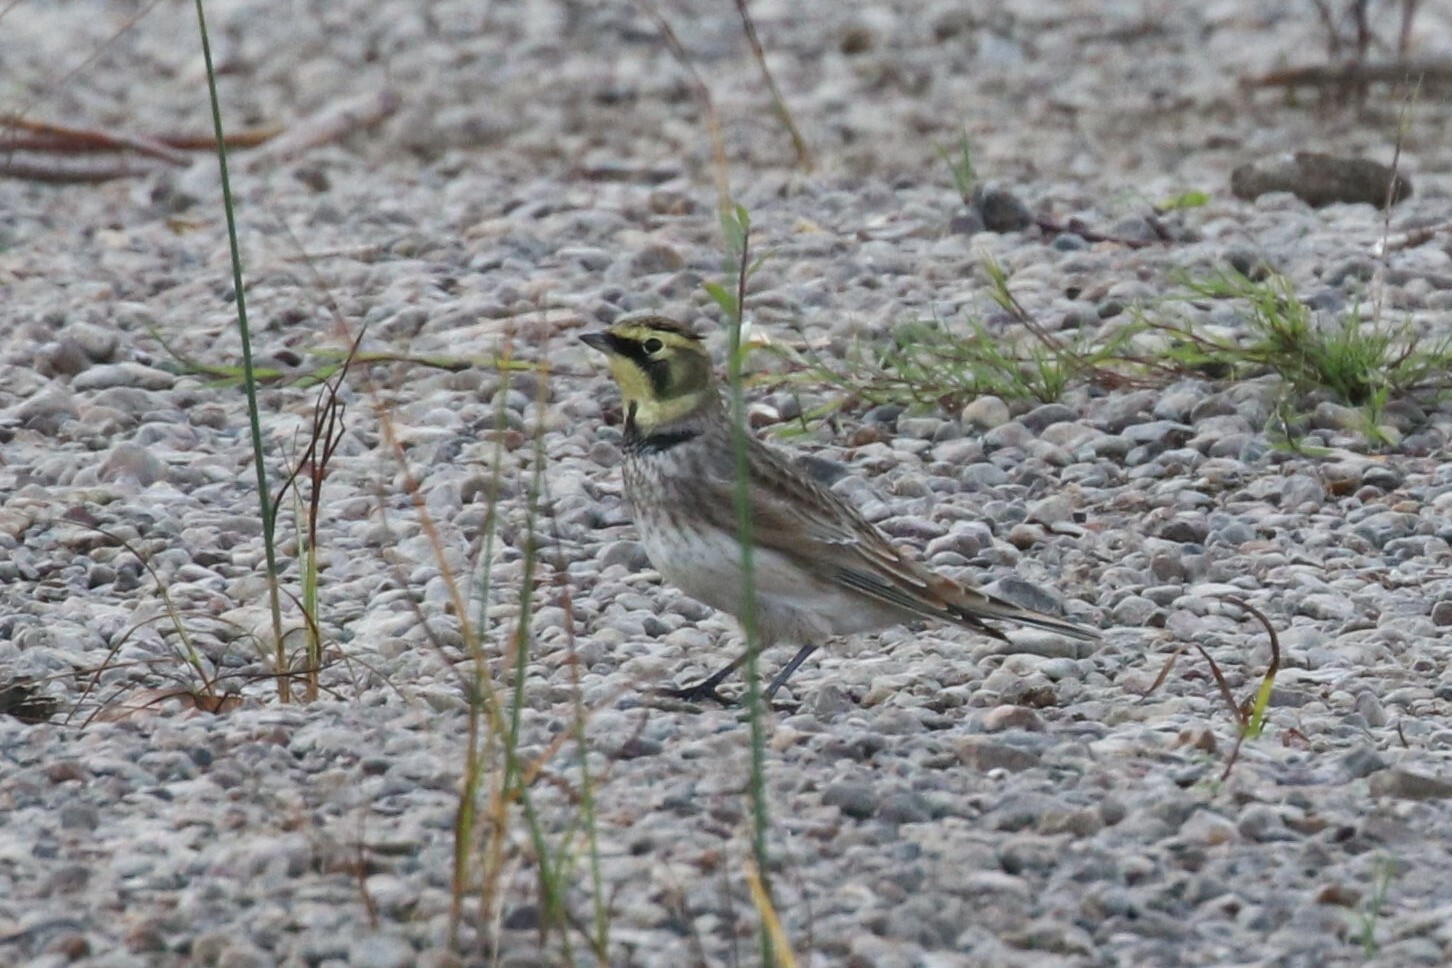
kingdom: Animalia
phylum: Chordata
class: Aves
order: Passeriformes
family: Alaudidae
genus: Eremophila
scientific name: Eremophila alpestris
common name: Horned lark
